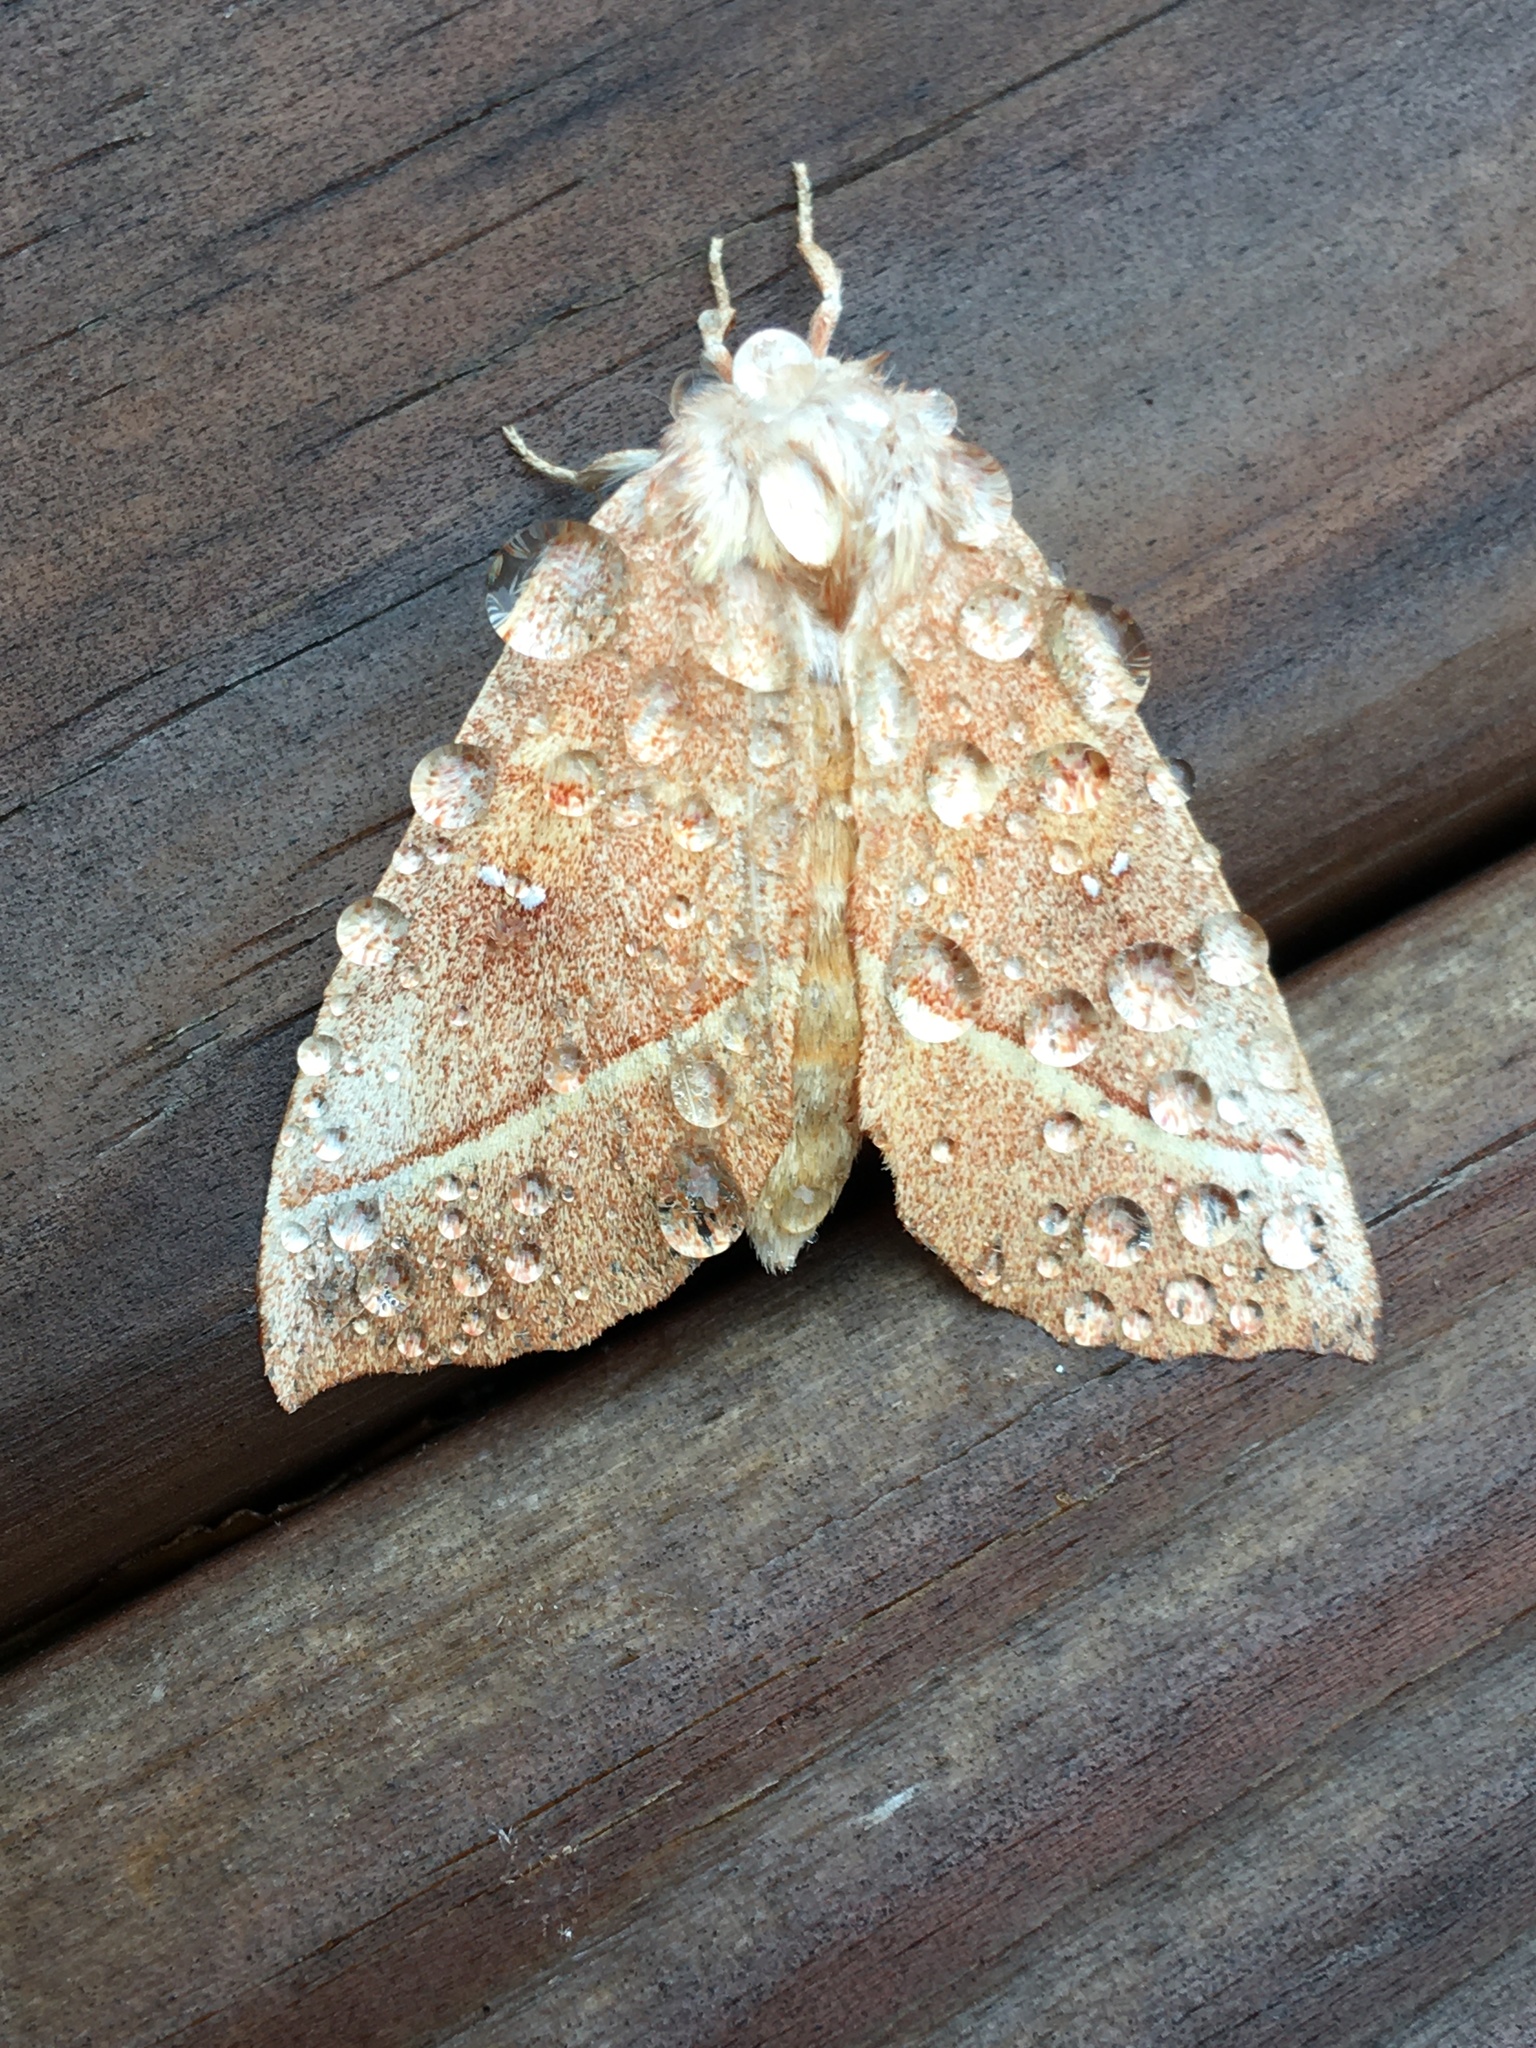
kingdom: Animalia
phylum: Arthropoda
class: Insecta
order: Lepidoptera
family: Notodontidae
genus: Nadata
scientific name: Nadata gibbosa
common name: White-dotted prominent
